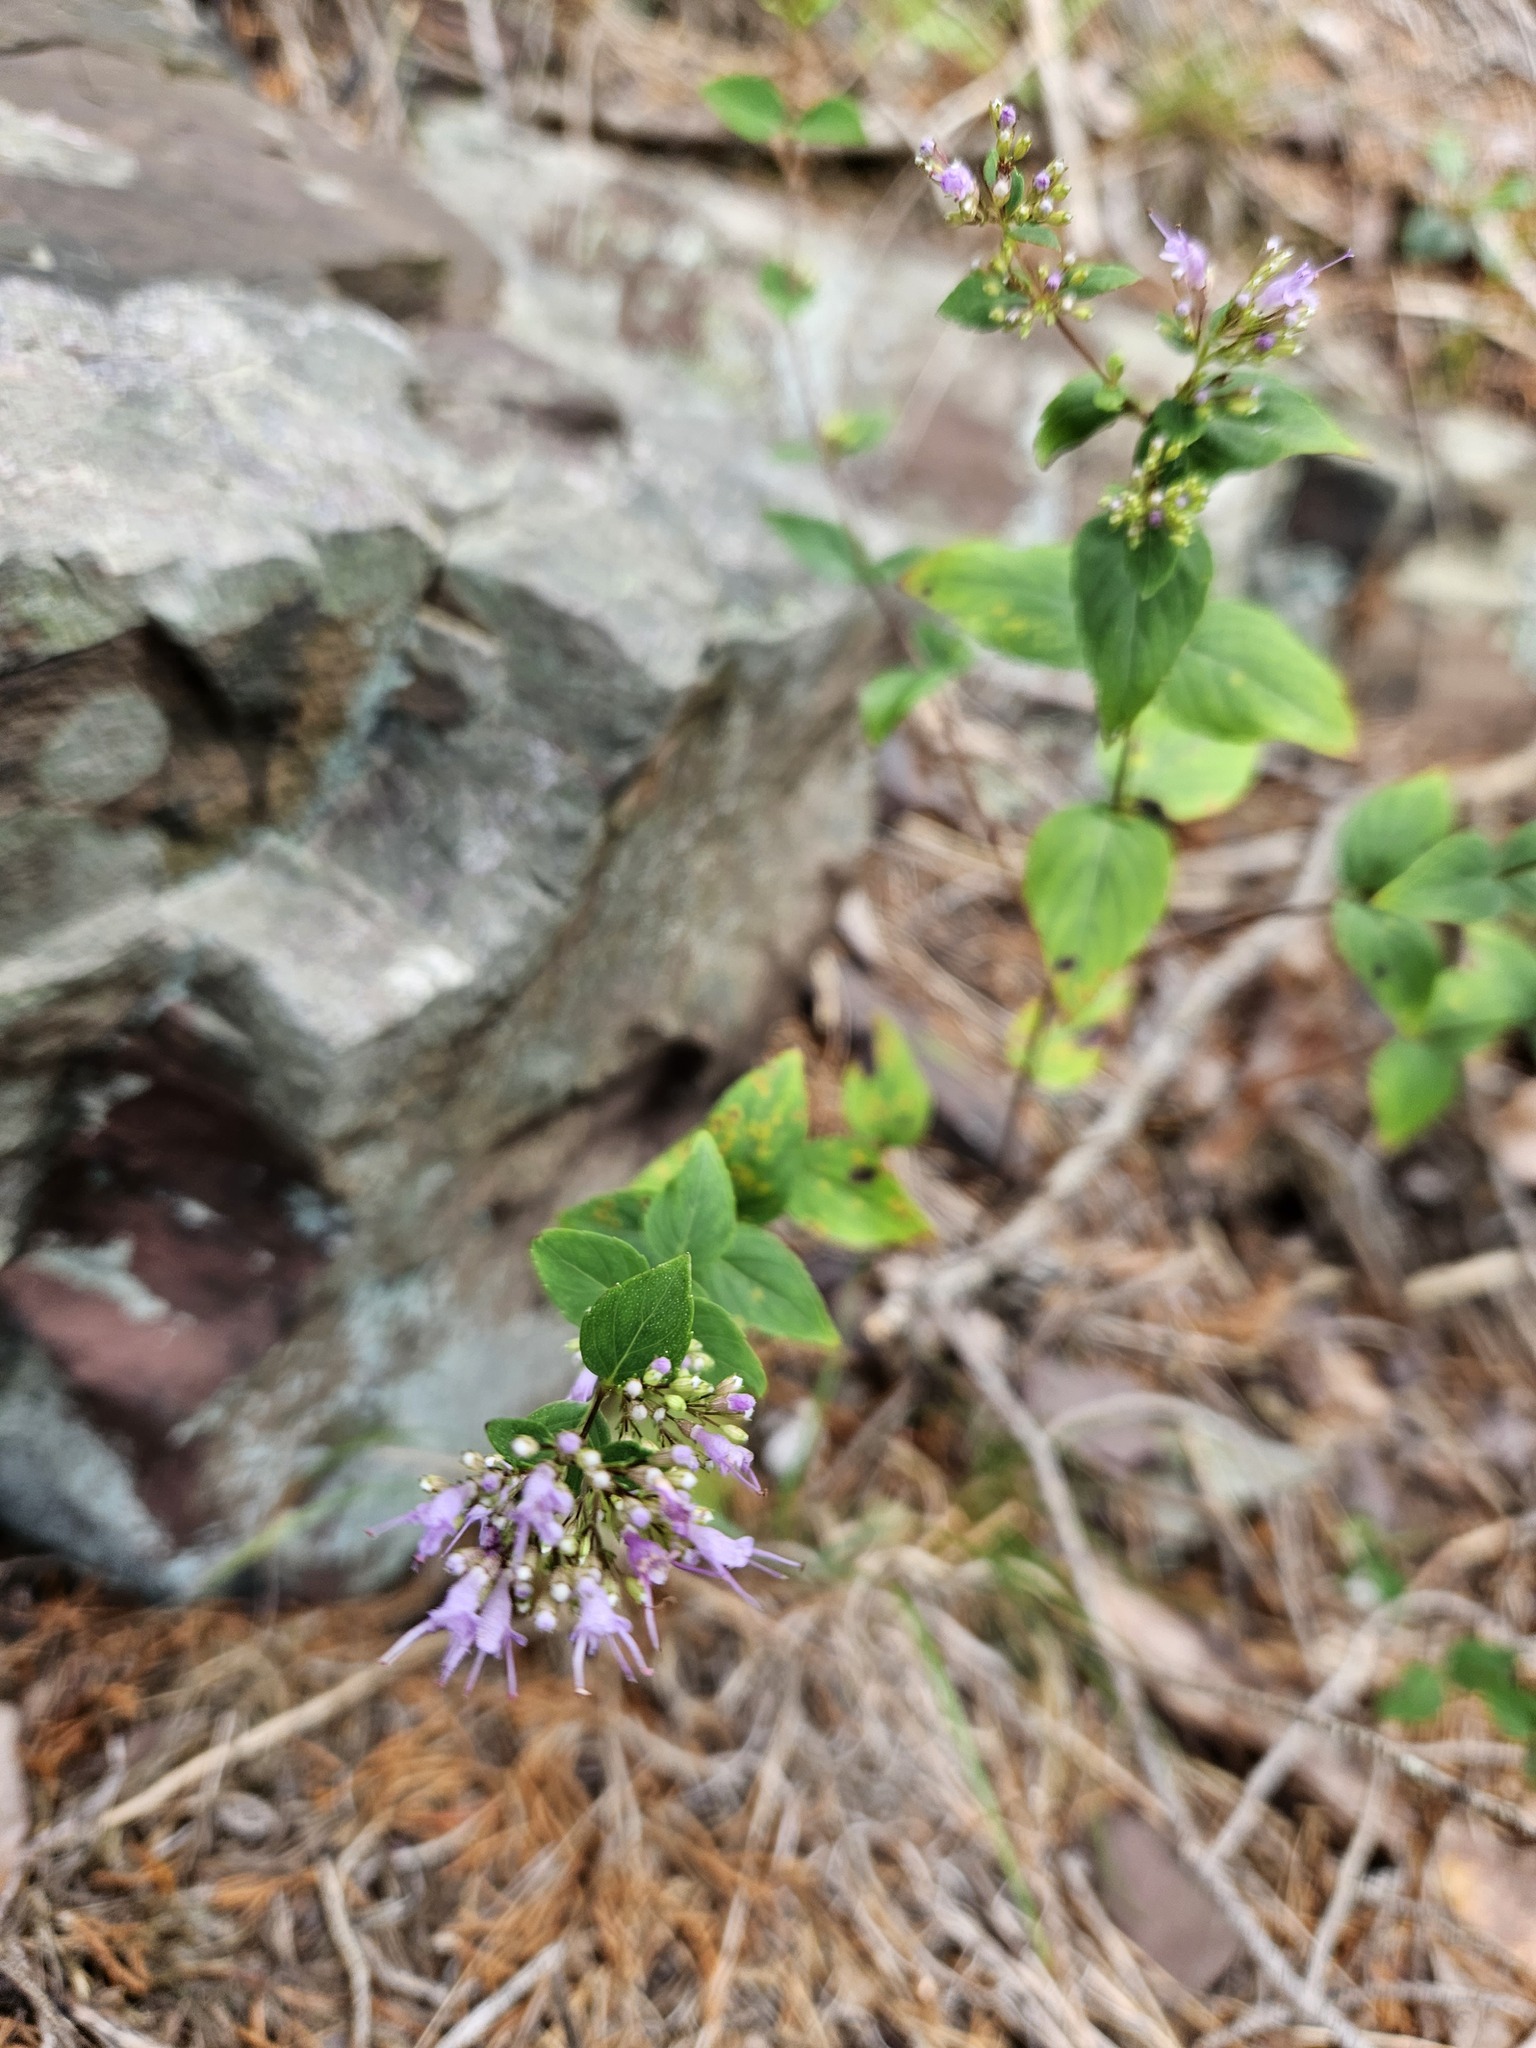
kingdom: Plantae
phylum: Tracheophyta
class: Magnoliopsida
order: Lamiales
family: Lamiaceae
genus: Cunila
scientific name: Cunila origanoides
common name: American dittany
